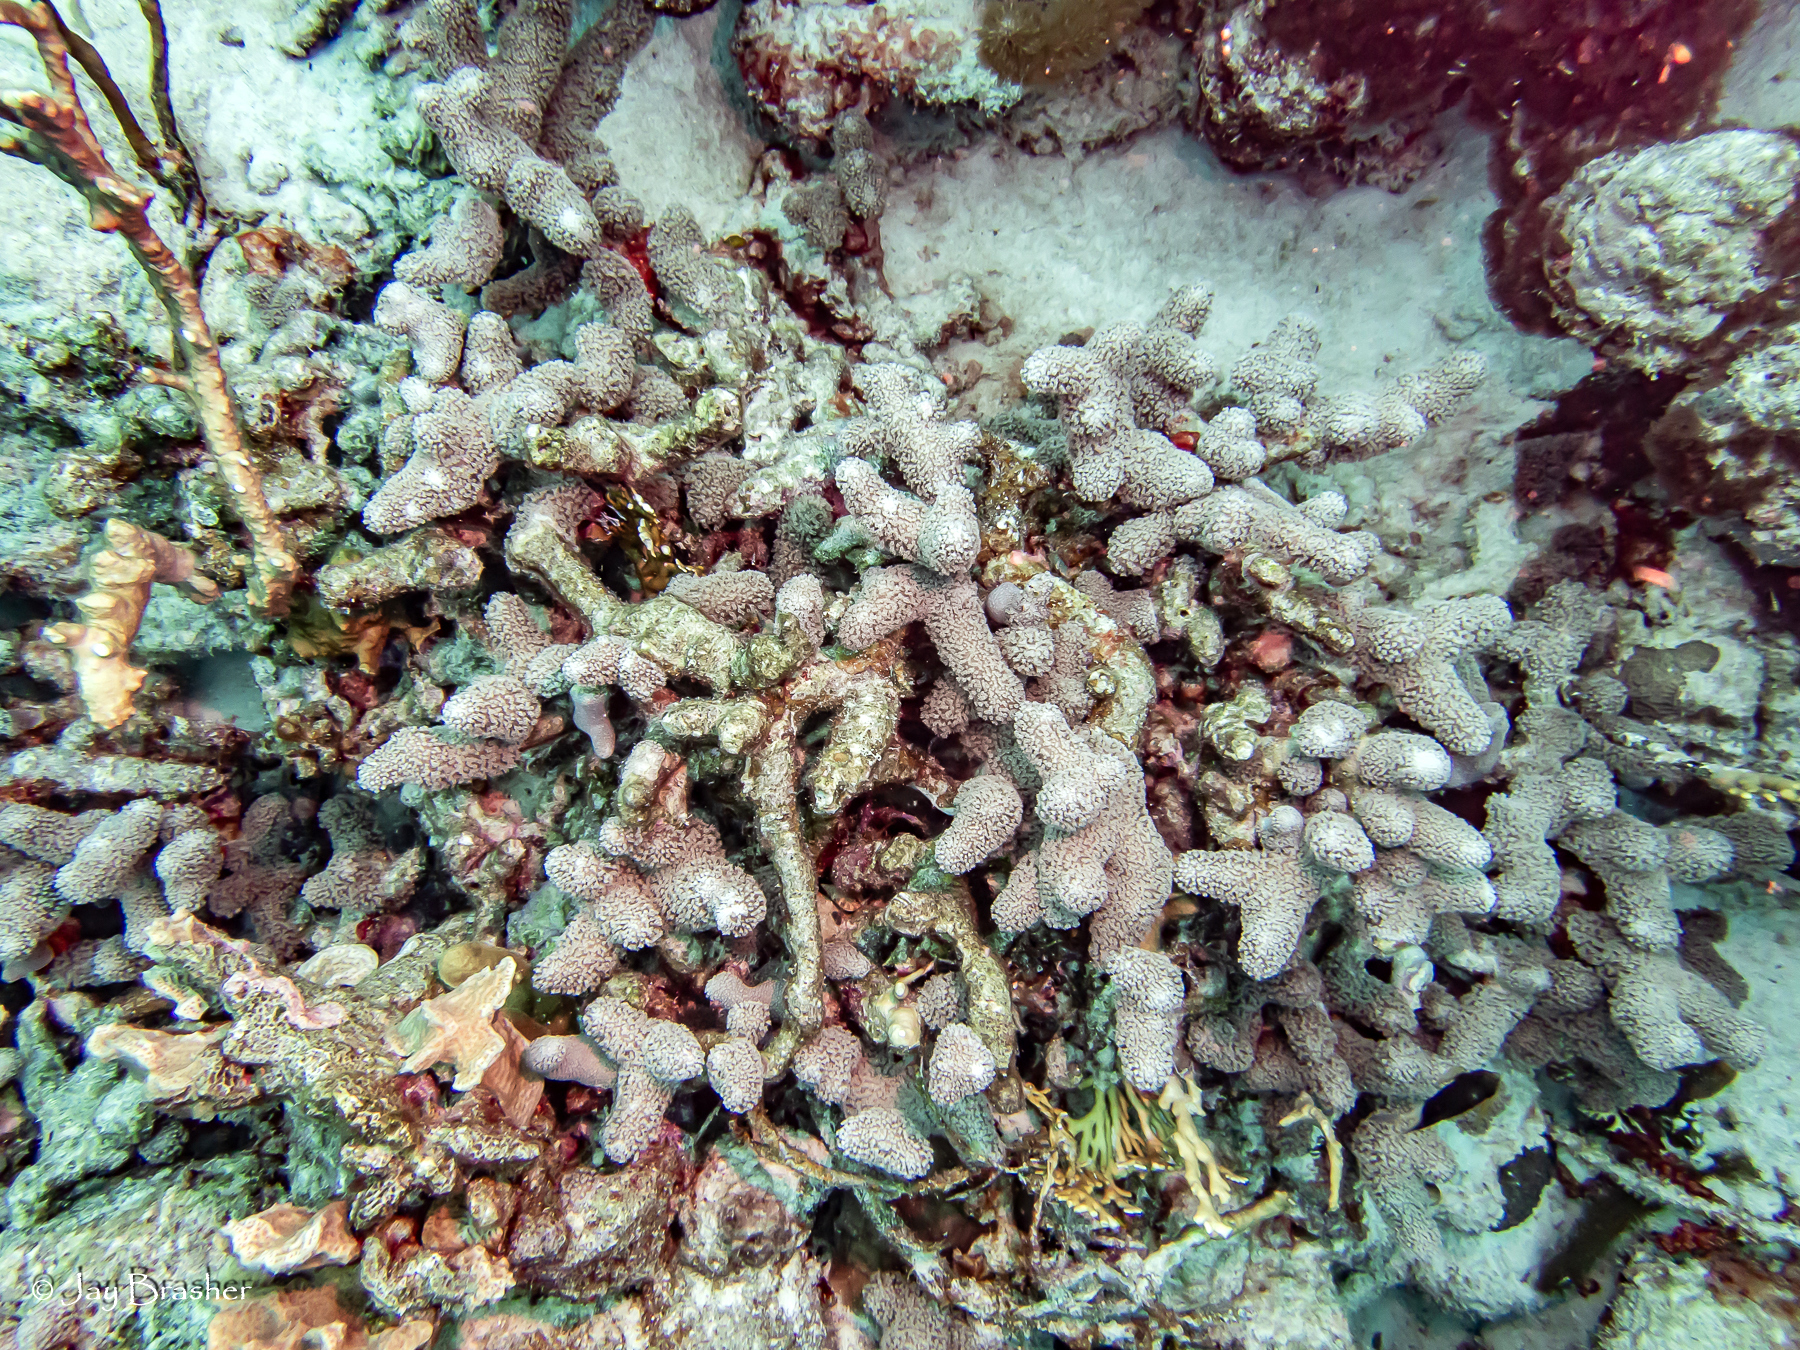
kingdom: Animalia
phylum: Cnidaria
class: Anthozoa
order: Scleractinia
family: Poritidae
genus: Porites
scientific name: Porites porites
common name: Finger coral
